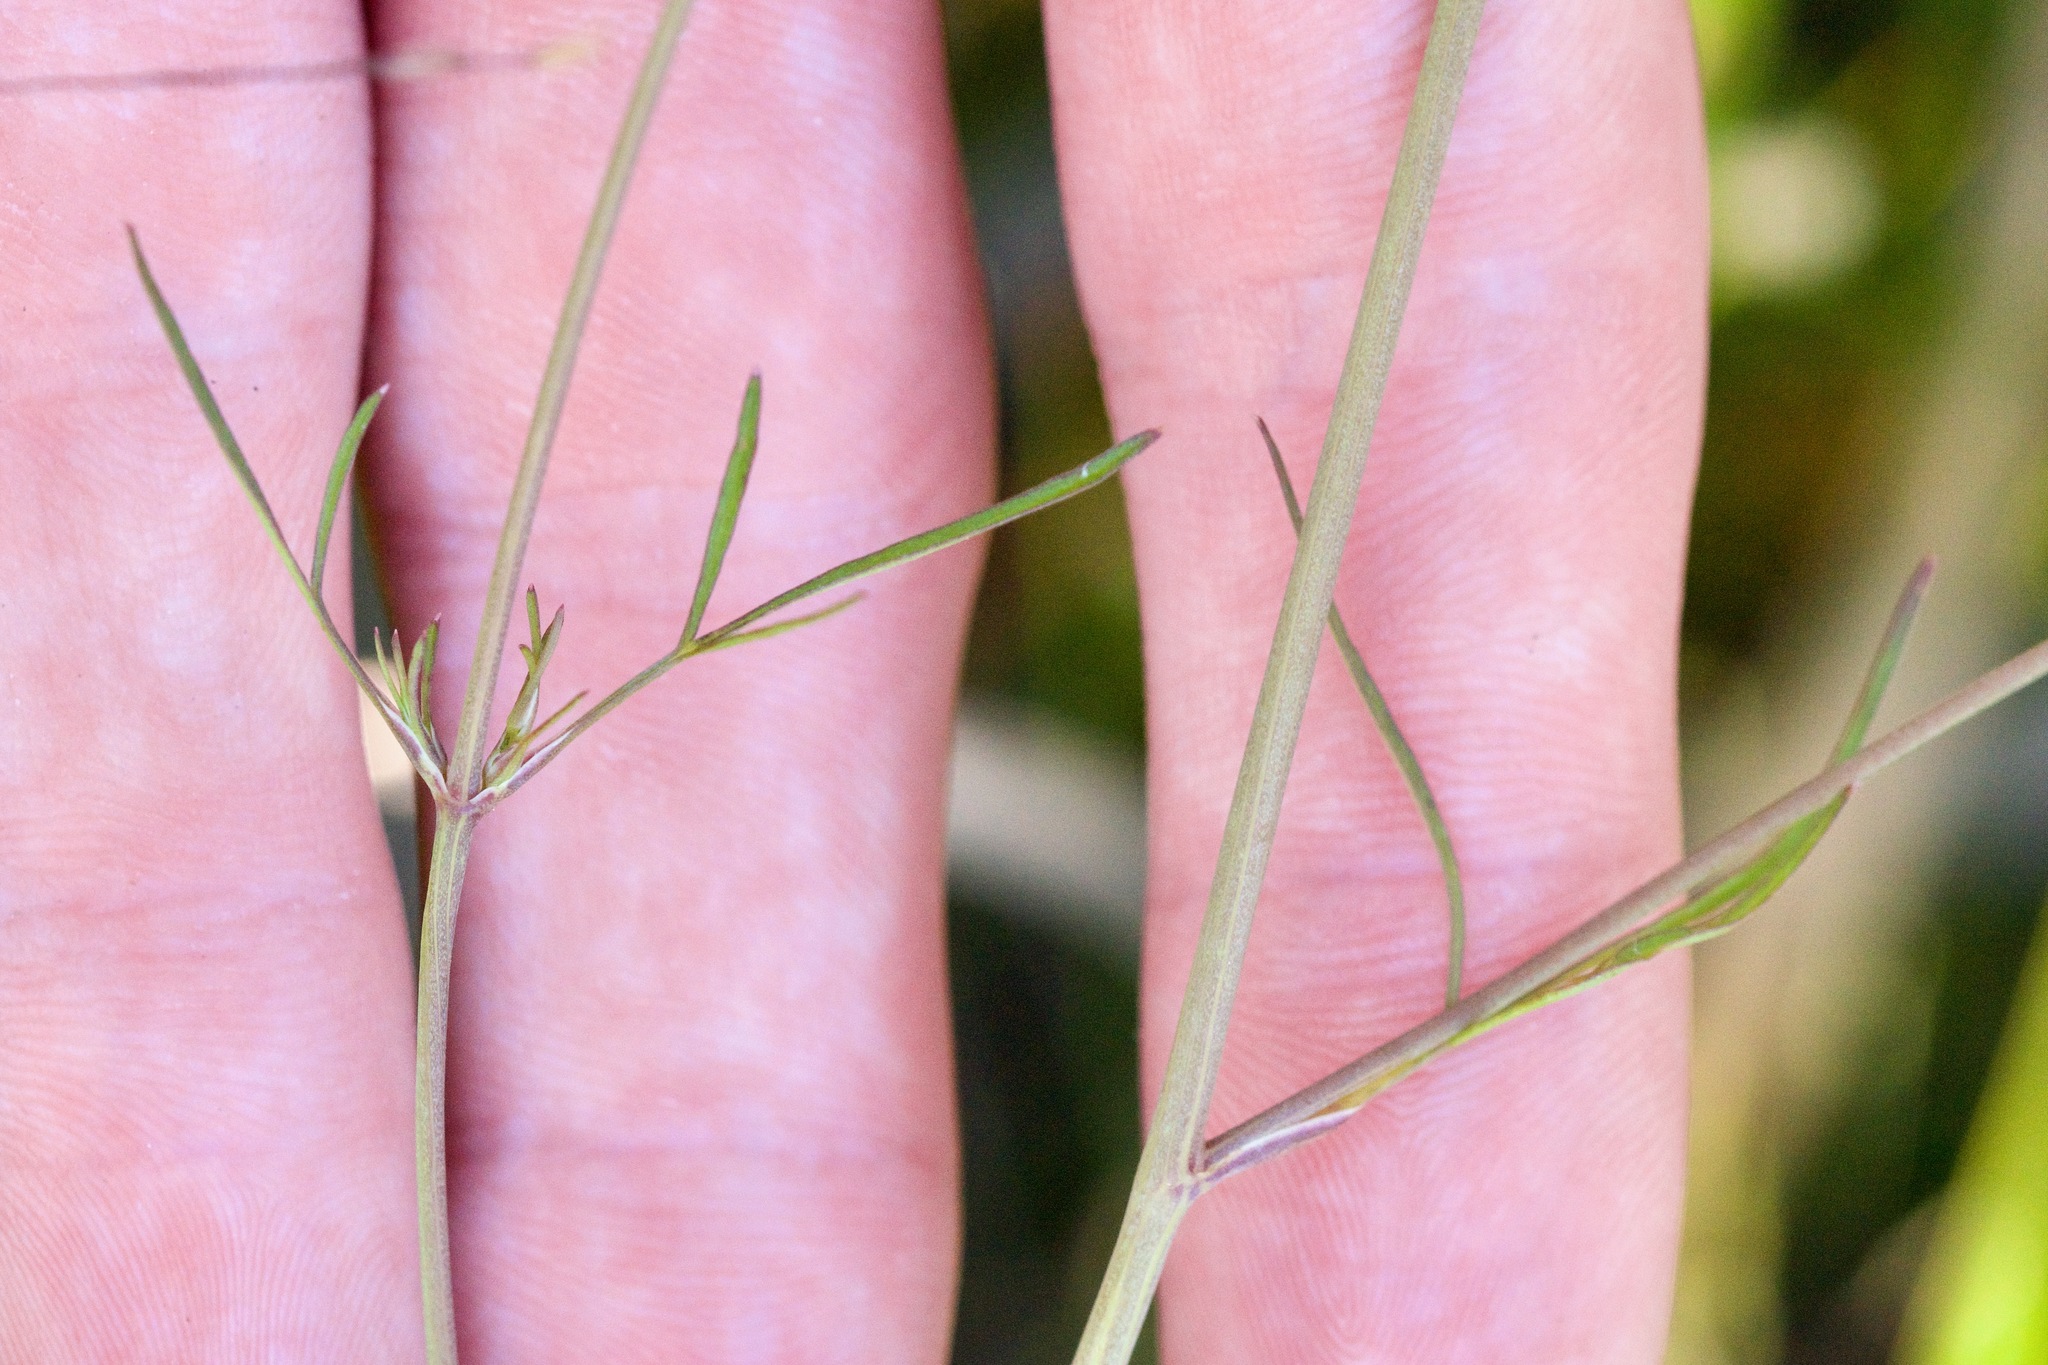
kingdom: Plantae
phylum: Tracheophyta
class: Magnoliopsida
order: Apiales
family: Apiaceae
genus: Cicuta
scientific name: Cicuta bulbifera
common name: Bulb-bearing water-hemlock
